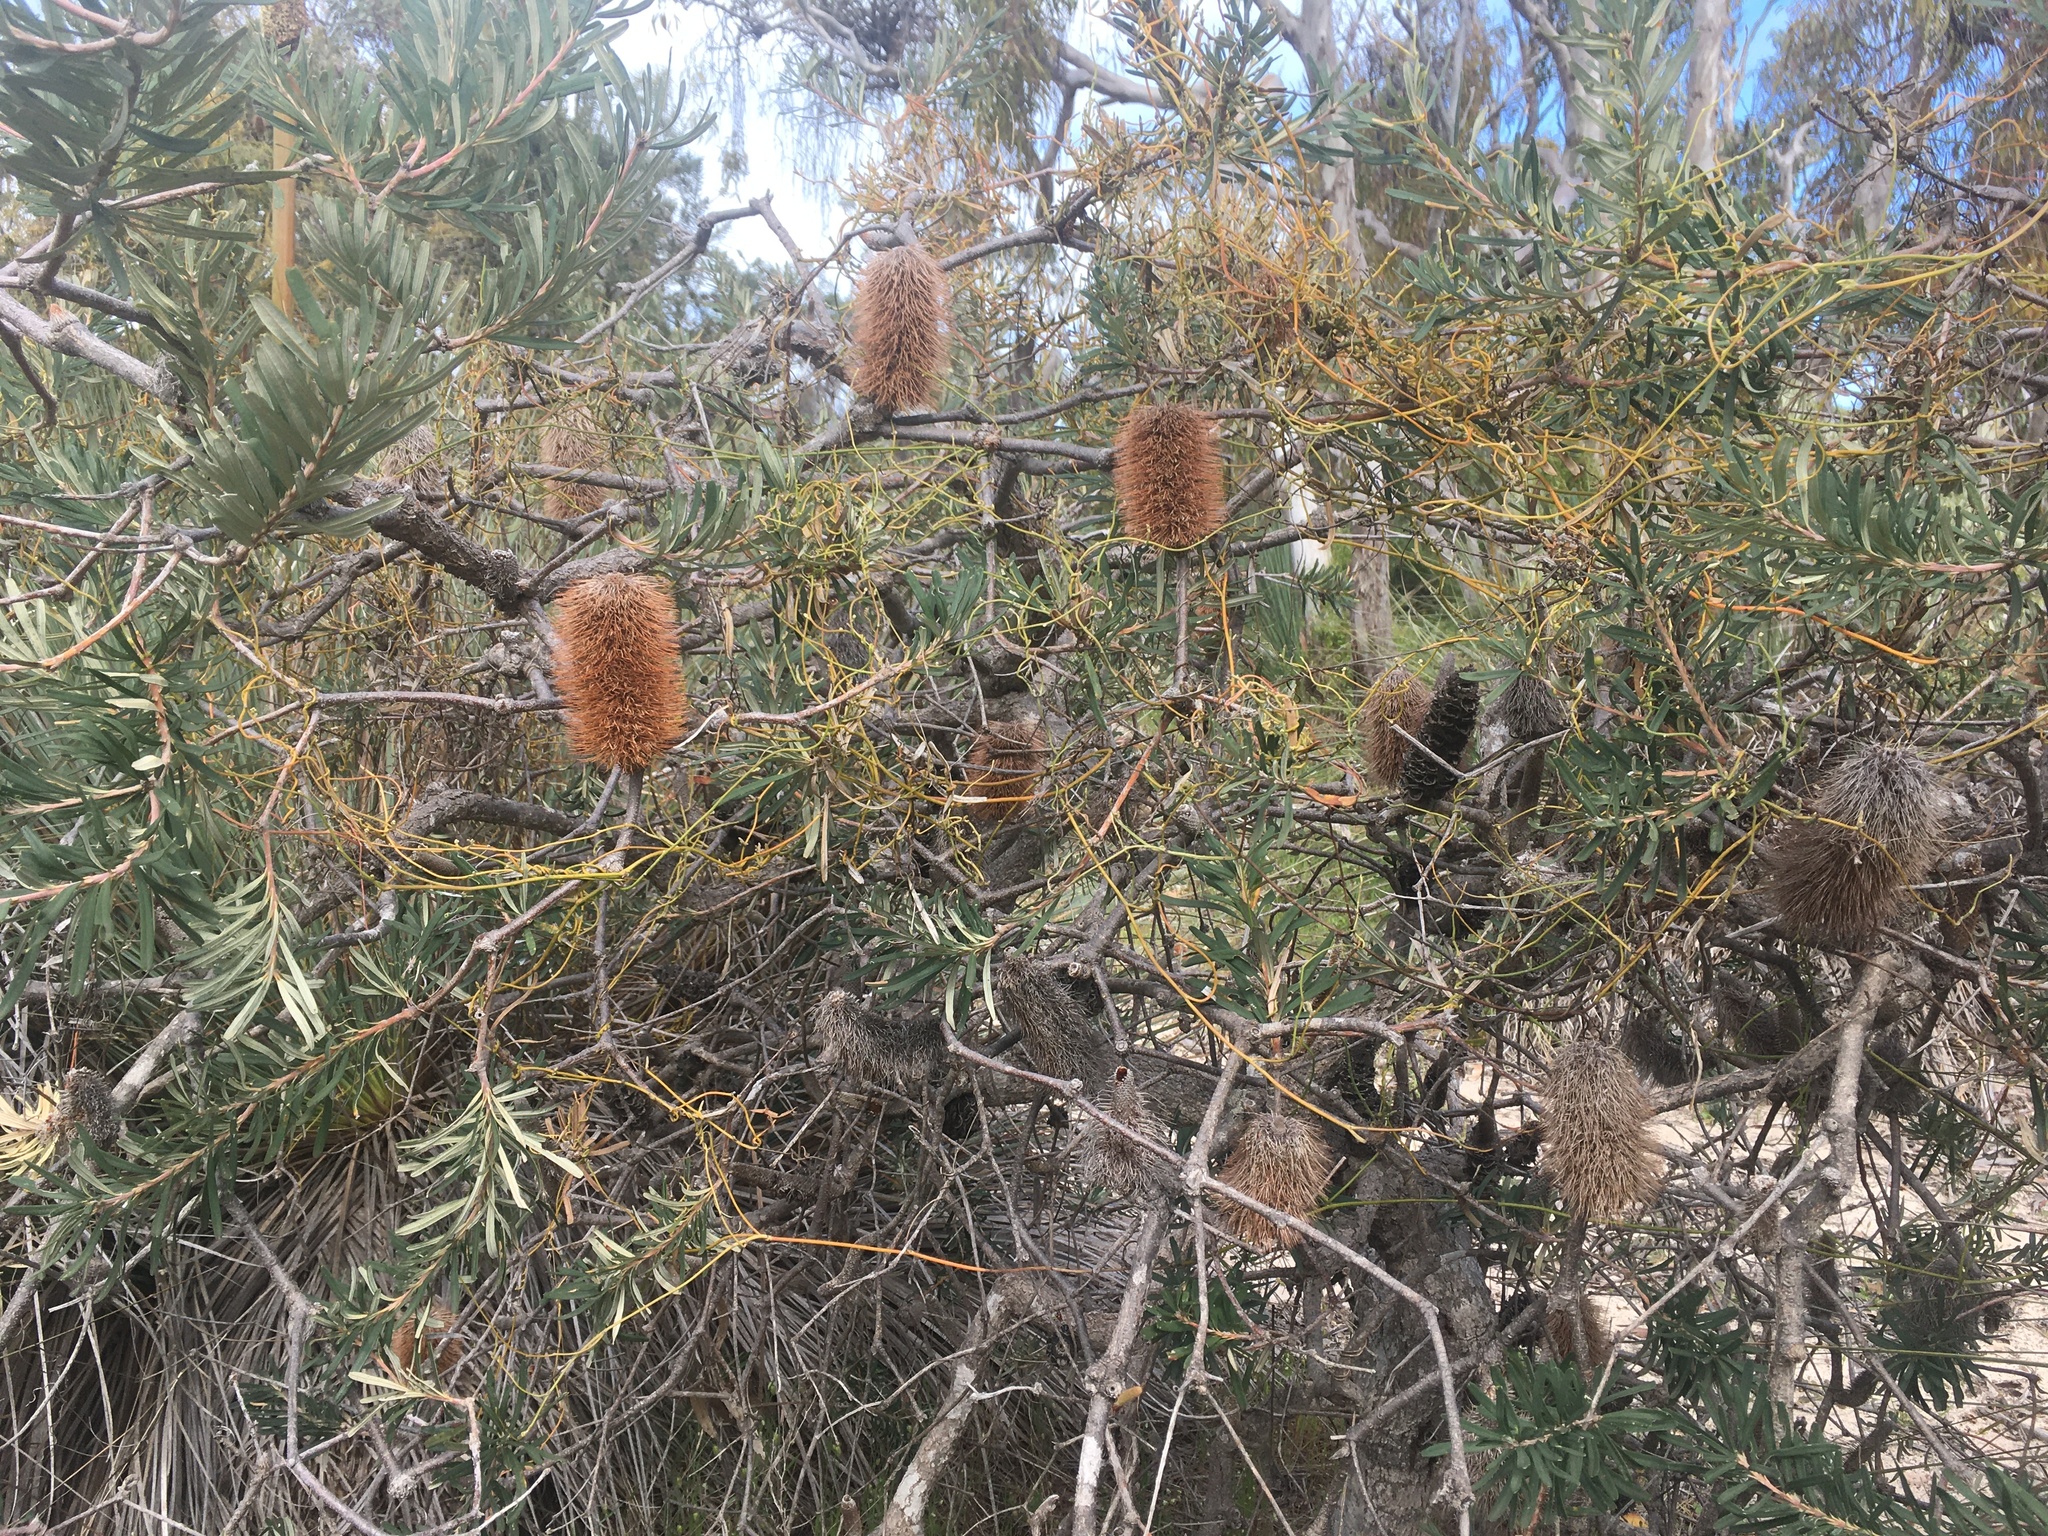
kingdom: Plantae
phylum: Tracheophyta
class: Magnoliopsida
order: Proteales
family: Proteaceae
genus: Banksia
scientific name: Banksia marginata
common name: Silver banksia
